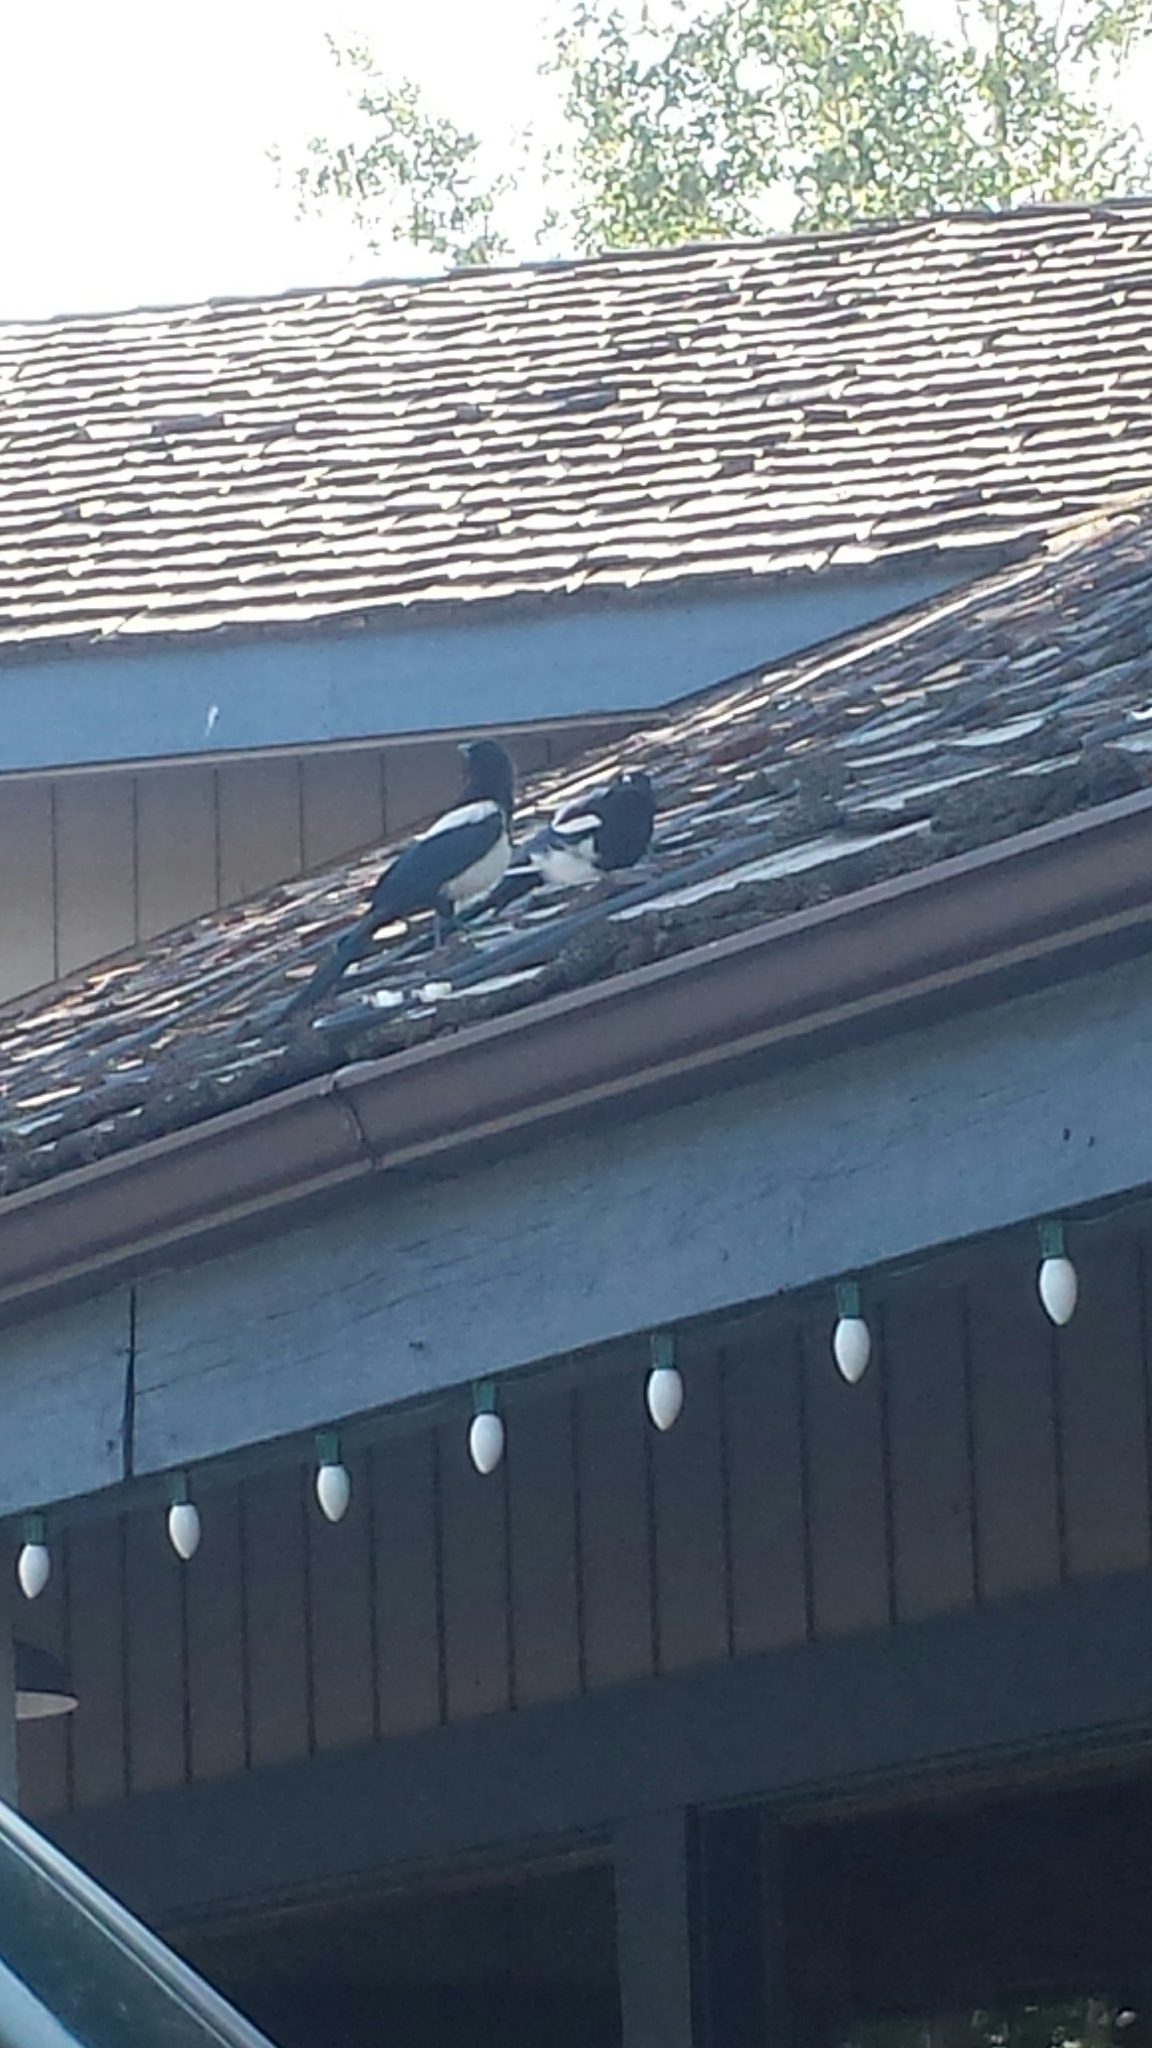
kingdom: Animalia
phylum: Chordata
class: Aves
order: Passeriformes
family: Corvidae
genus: Pica
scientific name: Pica hudsonia
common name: Black-billed magpie
